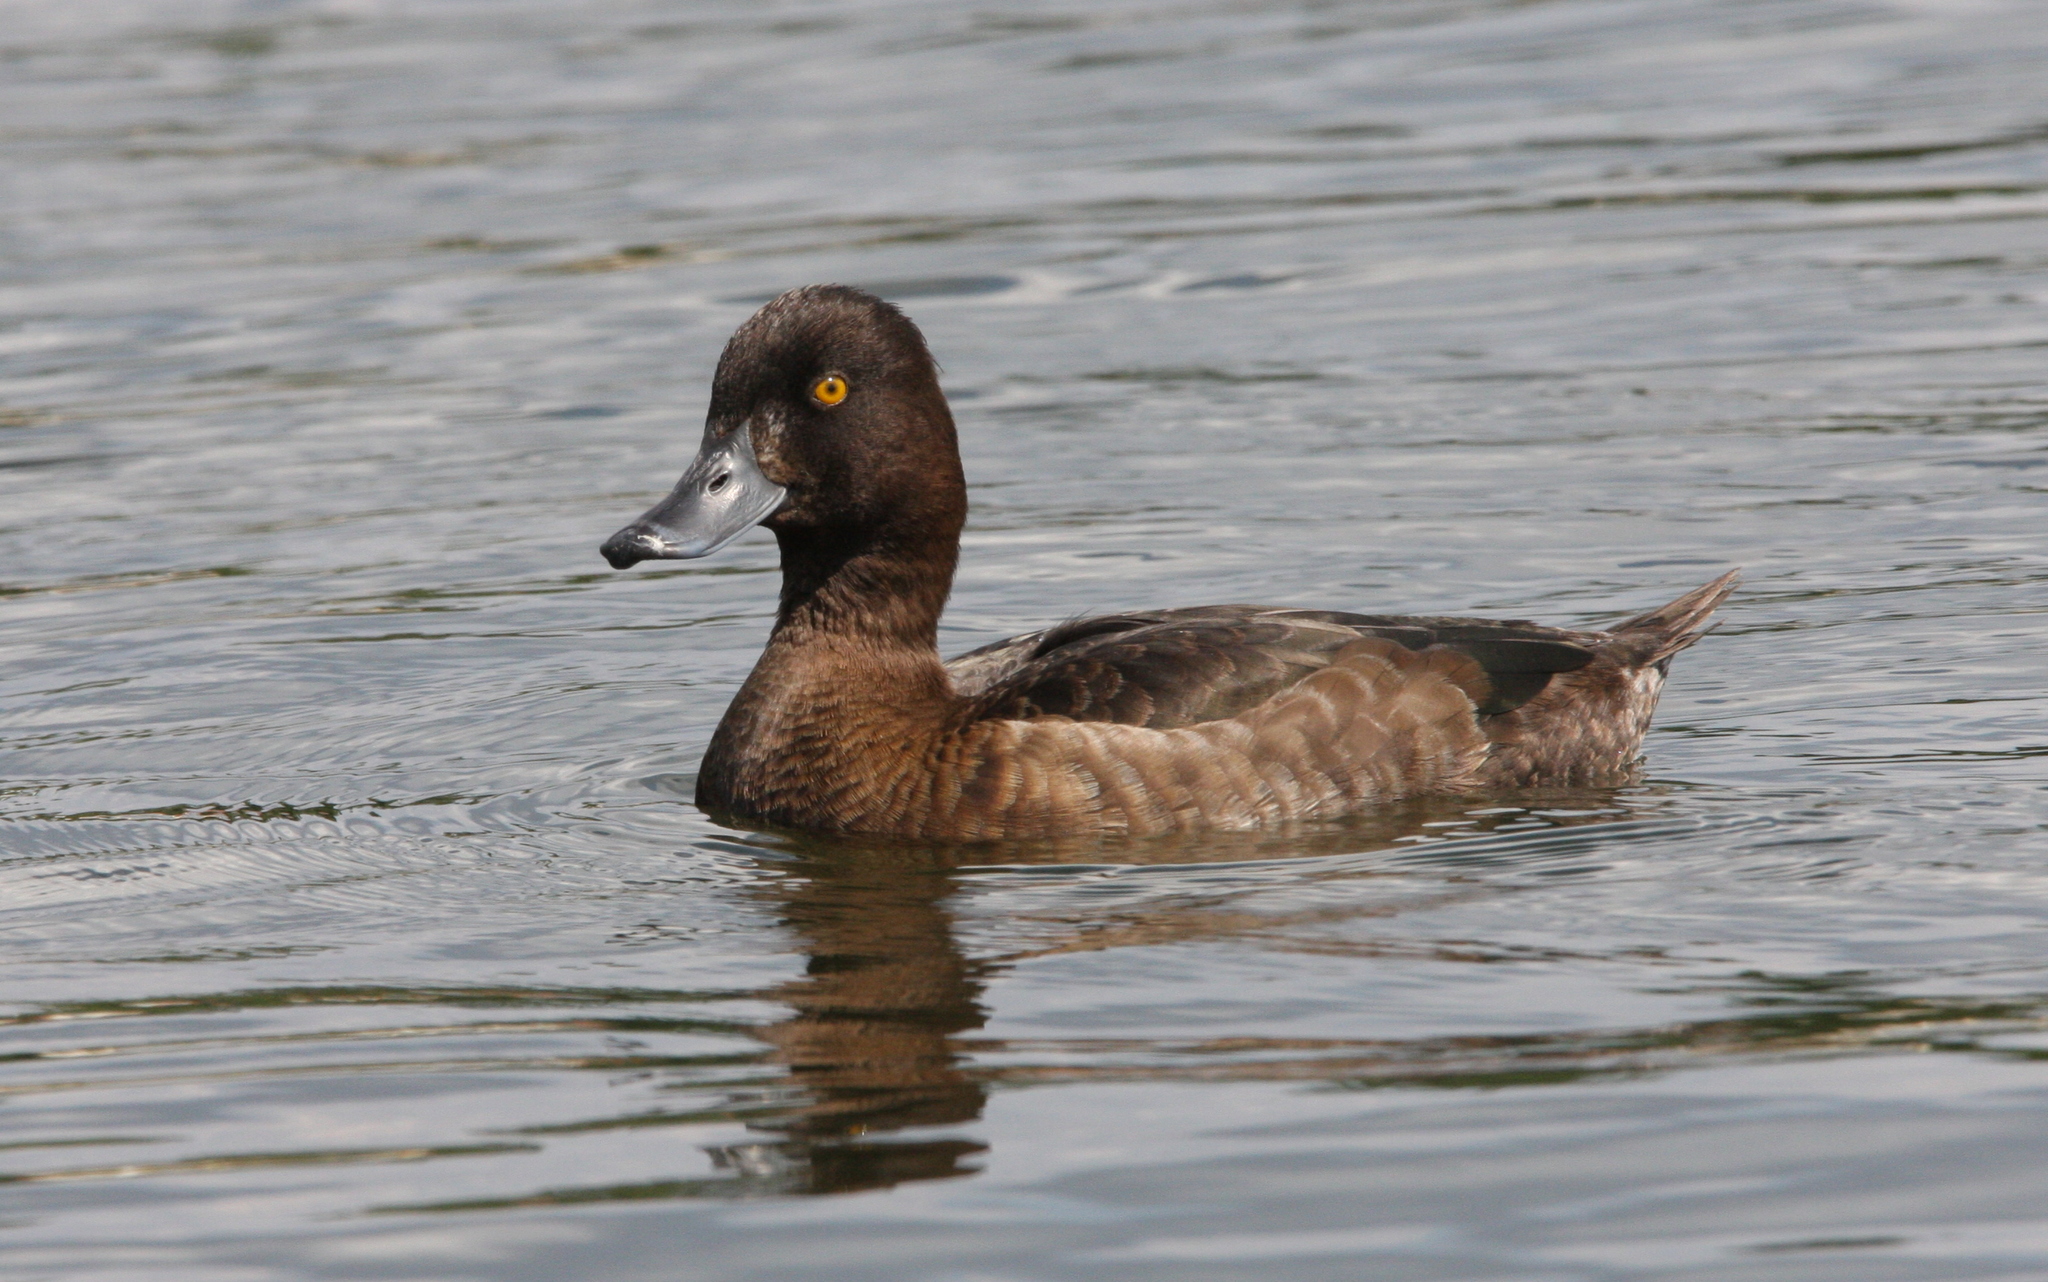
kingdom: Animalia
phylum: Chordata
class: Aves
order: Anseriformes
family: Anatidae
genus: Aythya
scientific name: Aythya fuligula
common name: Tufted duck
